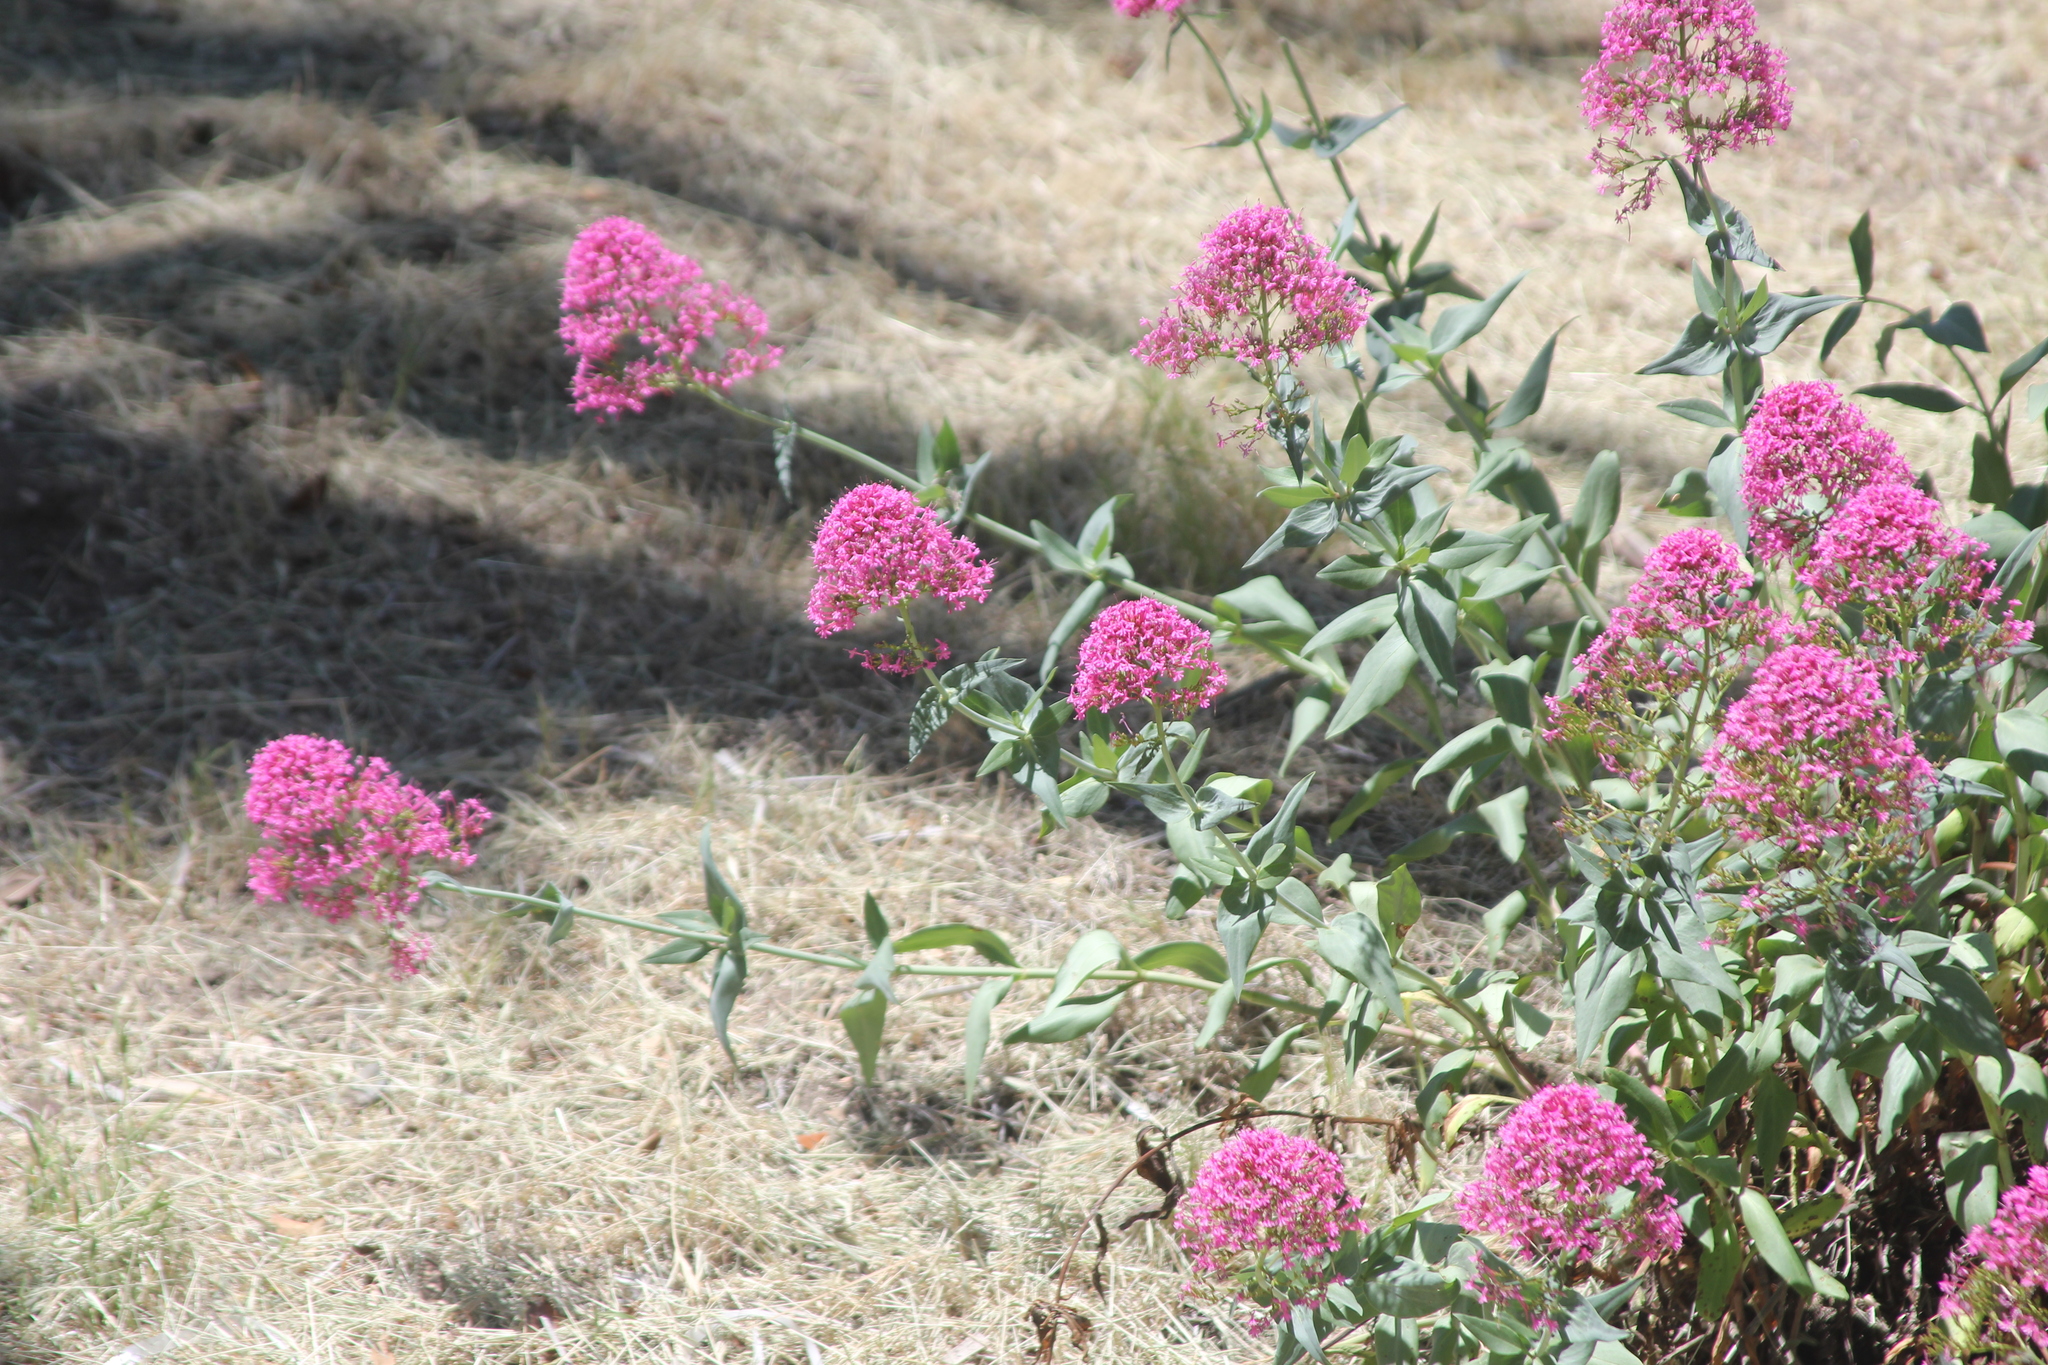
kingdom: Plantae
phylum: Tracheophyta
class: Magnoliopsida
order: Dipsacales
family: Caprifoliaceae
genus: Centranthus
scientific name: Centranthus ruber
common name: Red valerian
